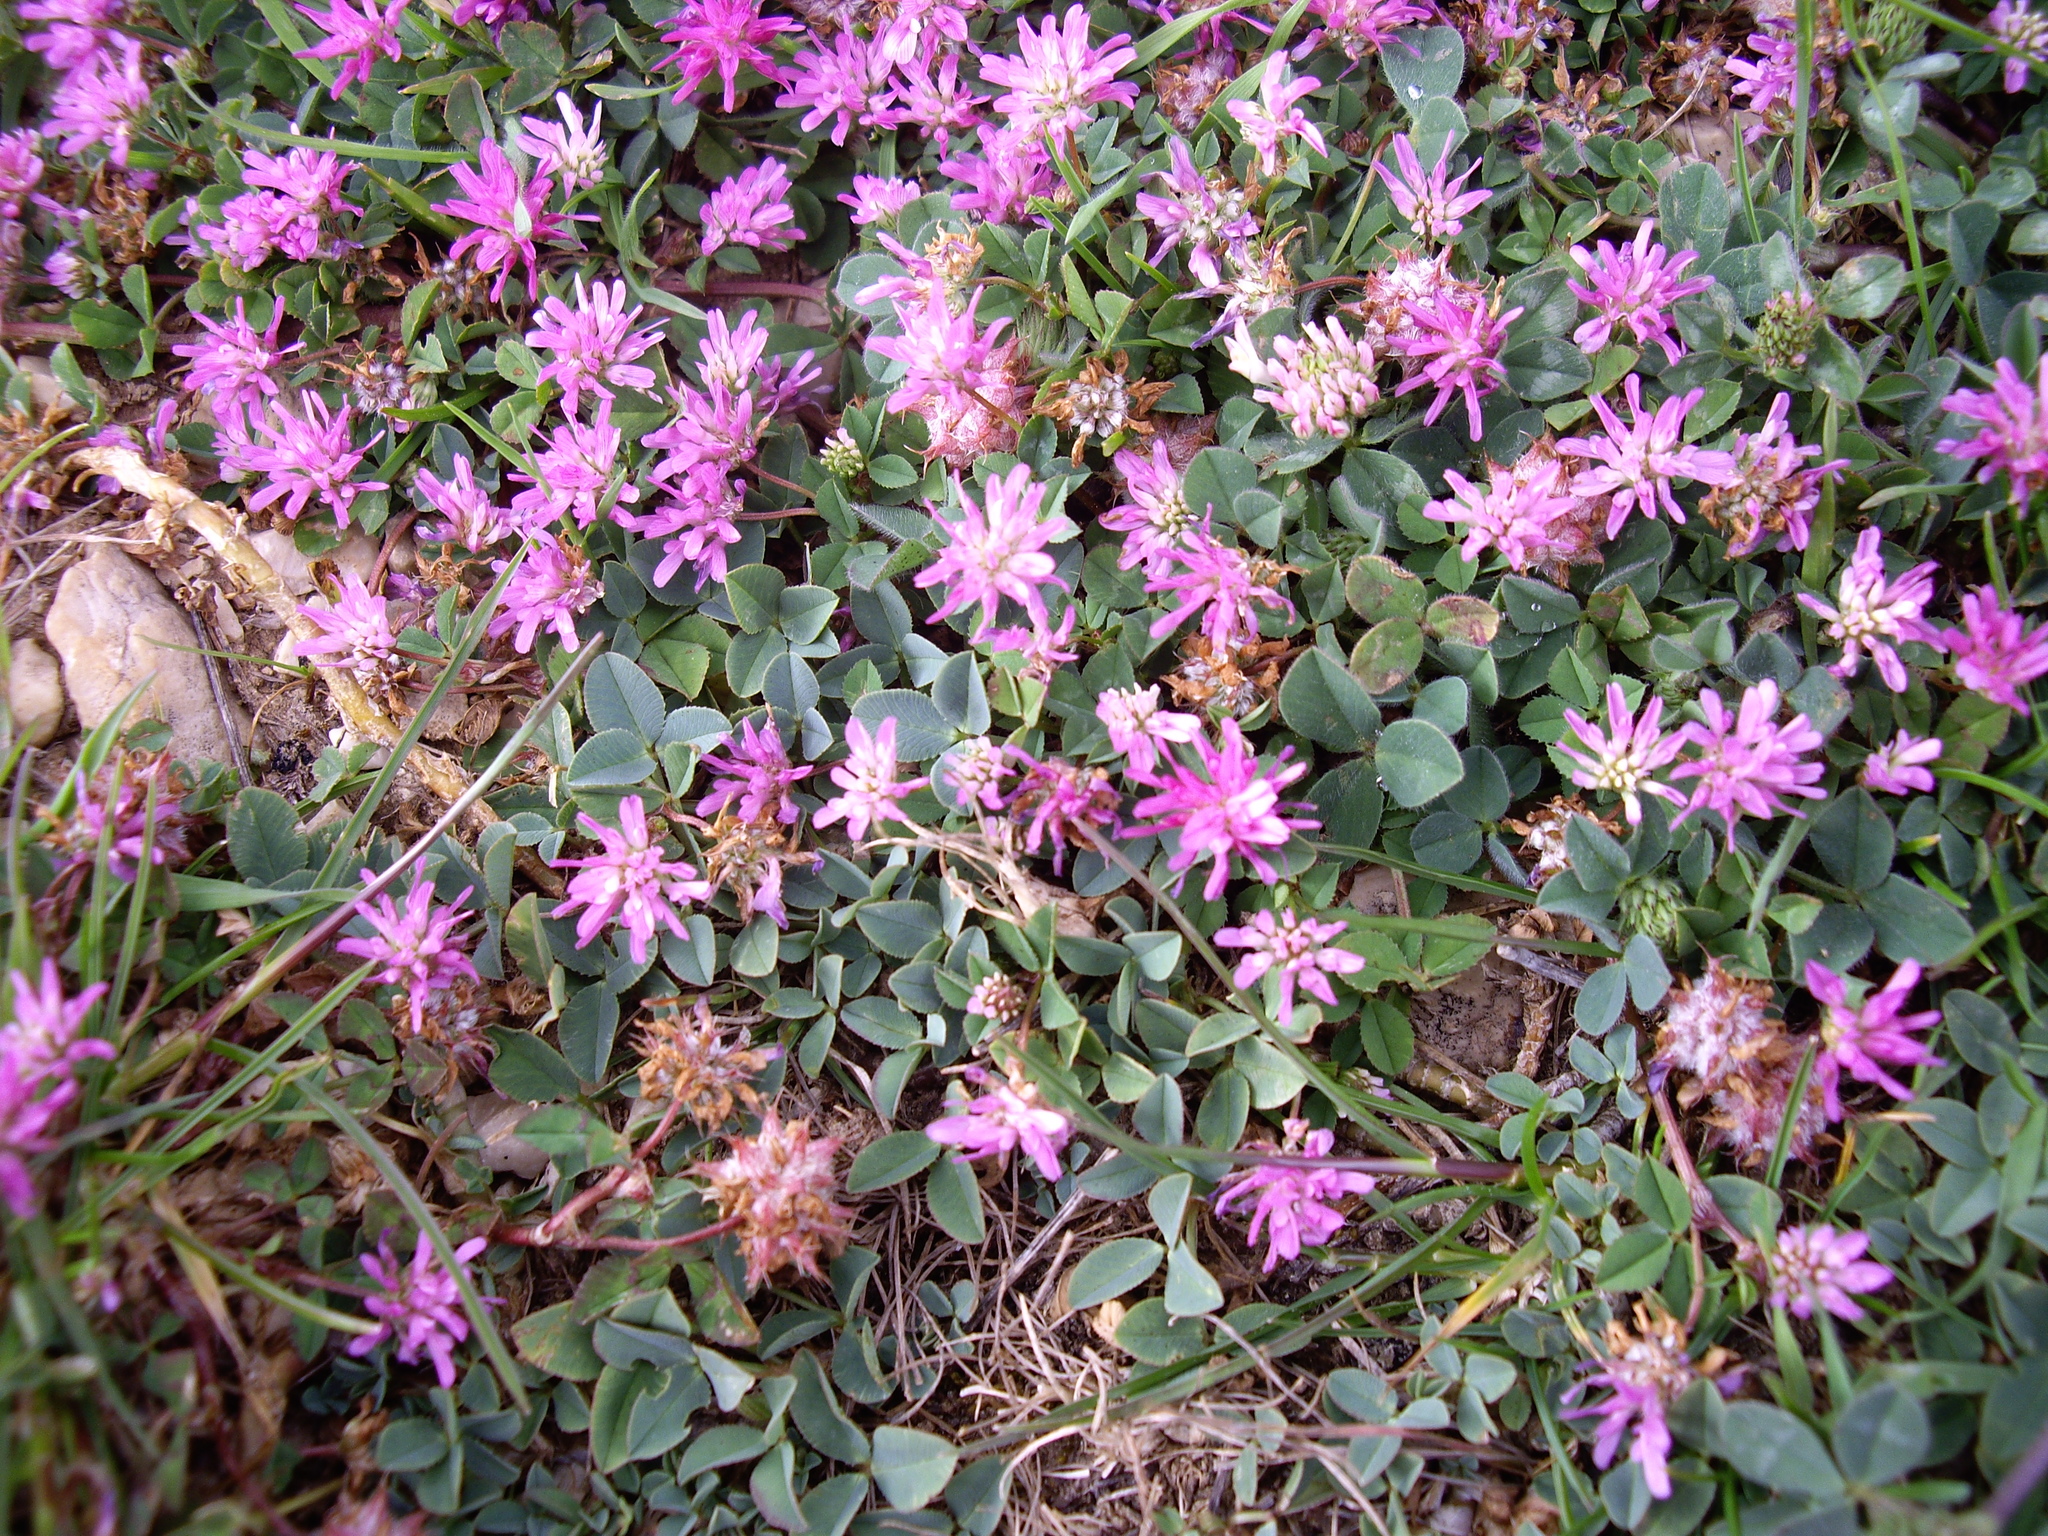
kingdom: Plantae
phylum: Tracheophyta
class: Magnoliopsida
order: Fabales
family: Fabaceae
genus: Trifolium
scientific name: Trifolium resupinatum
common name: Reversed clover
